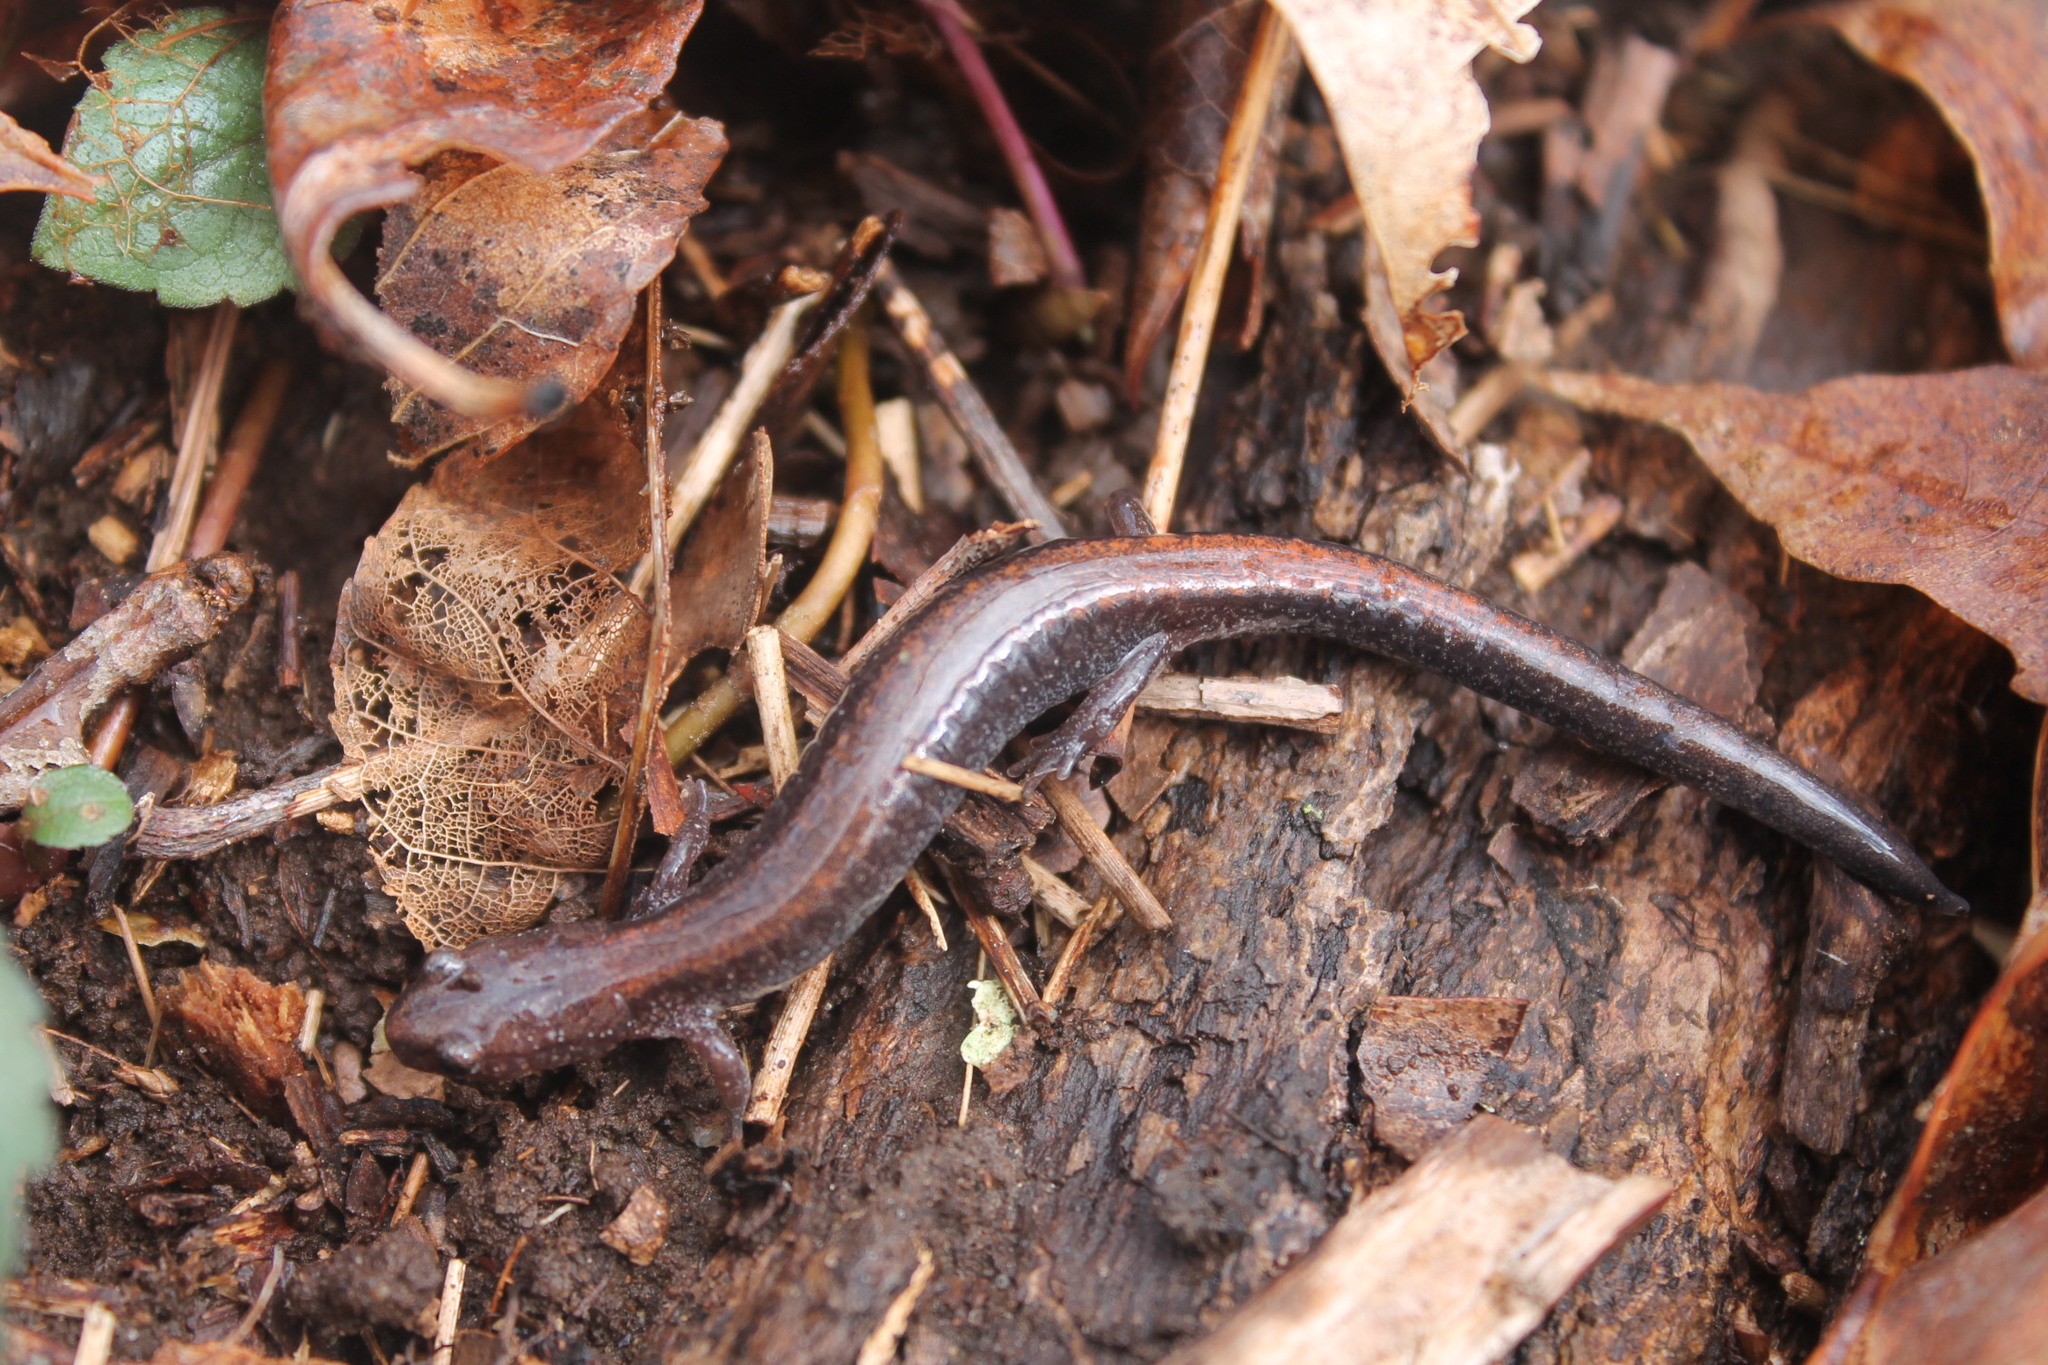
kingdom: Animalia
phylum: Chordata
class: Amphibia
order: Caudata
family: Plethodontidae
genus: Plethodon
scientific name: Plethodon cinereus
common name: Redback salamander
